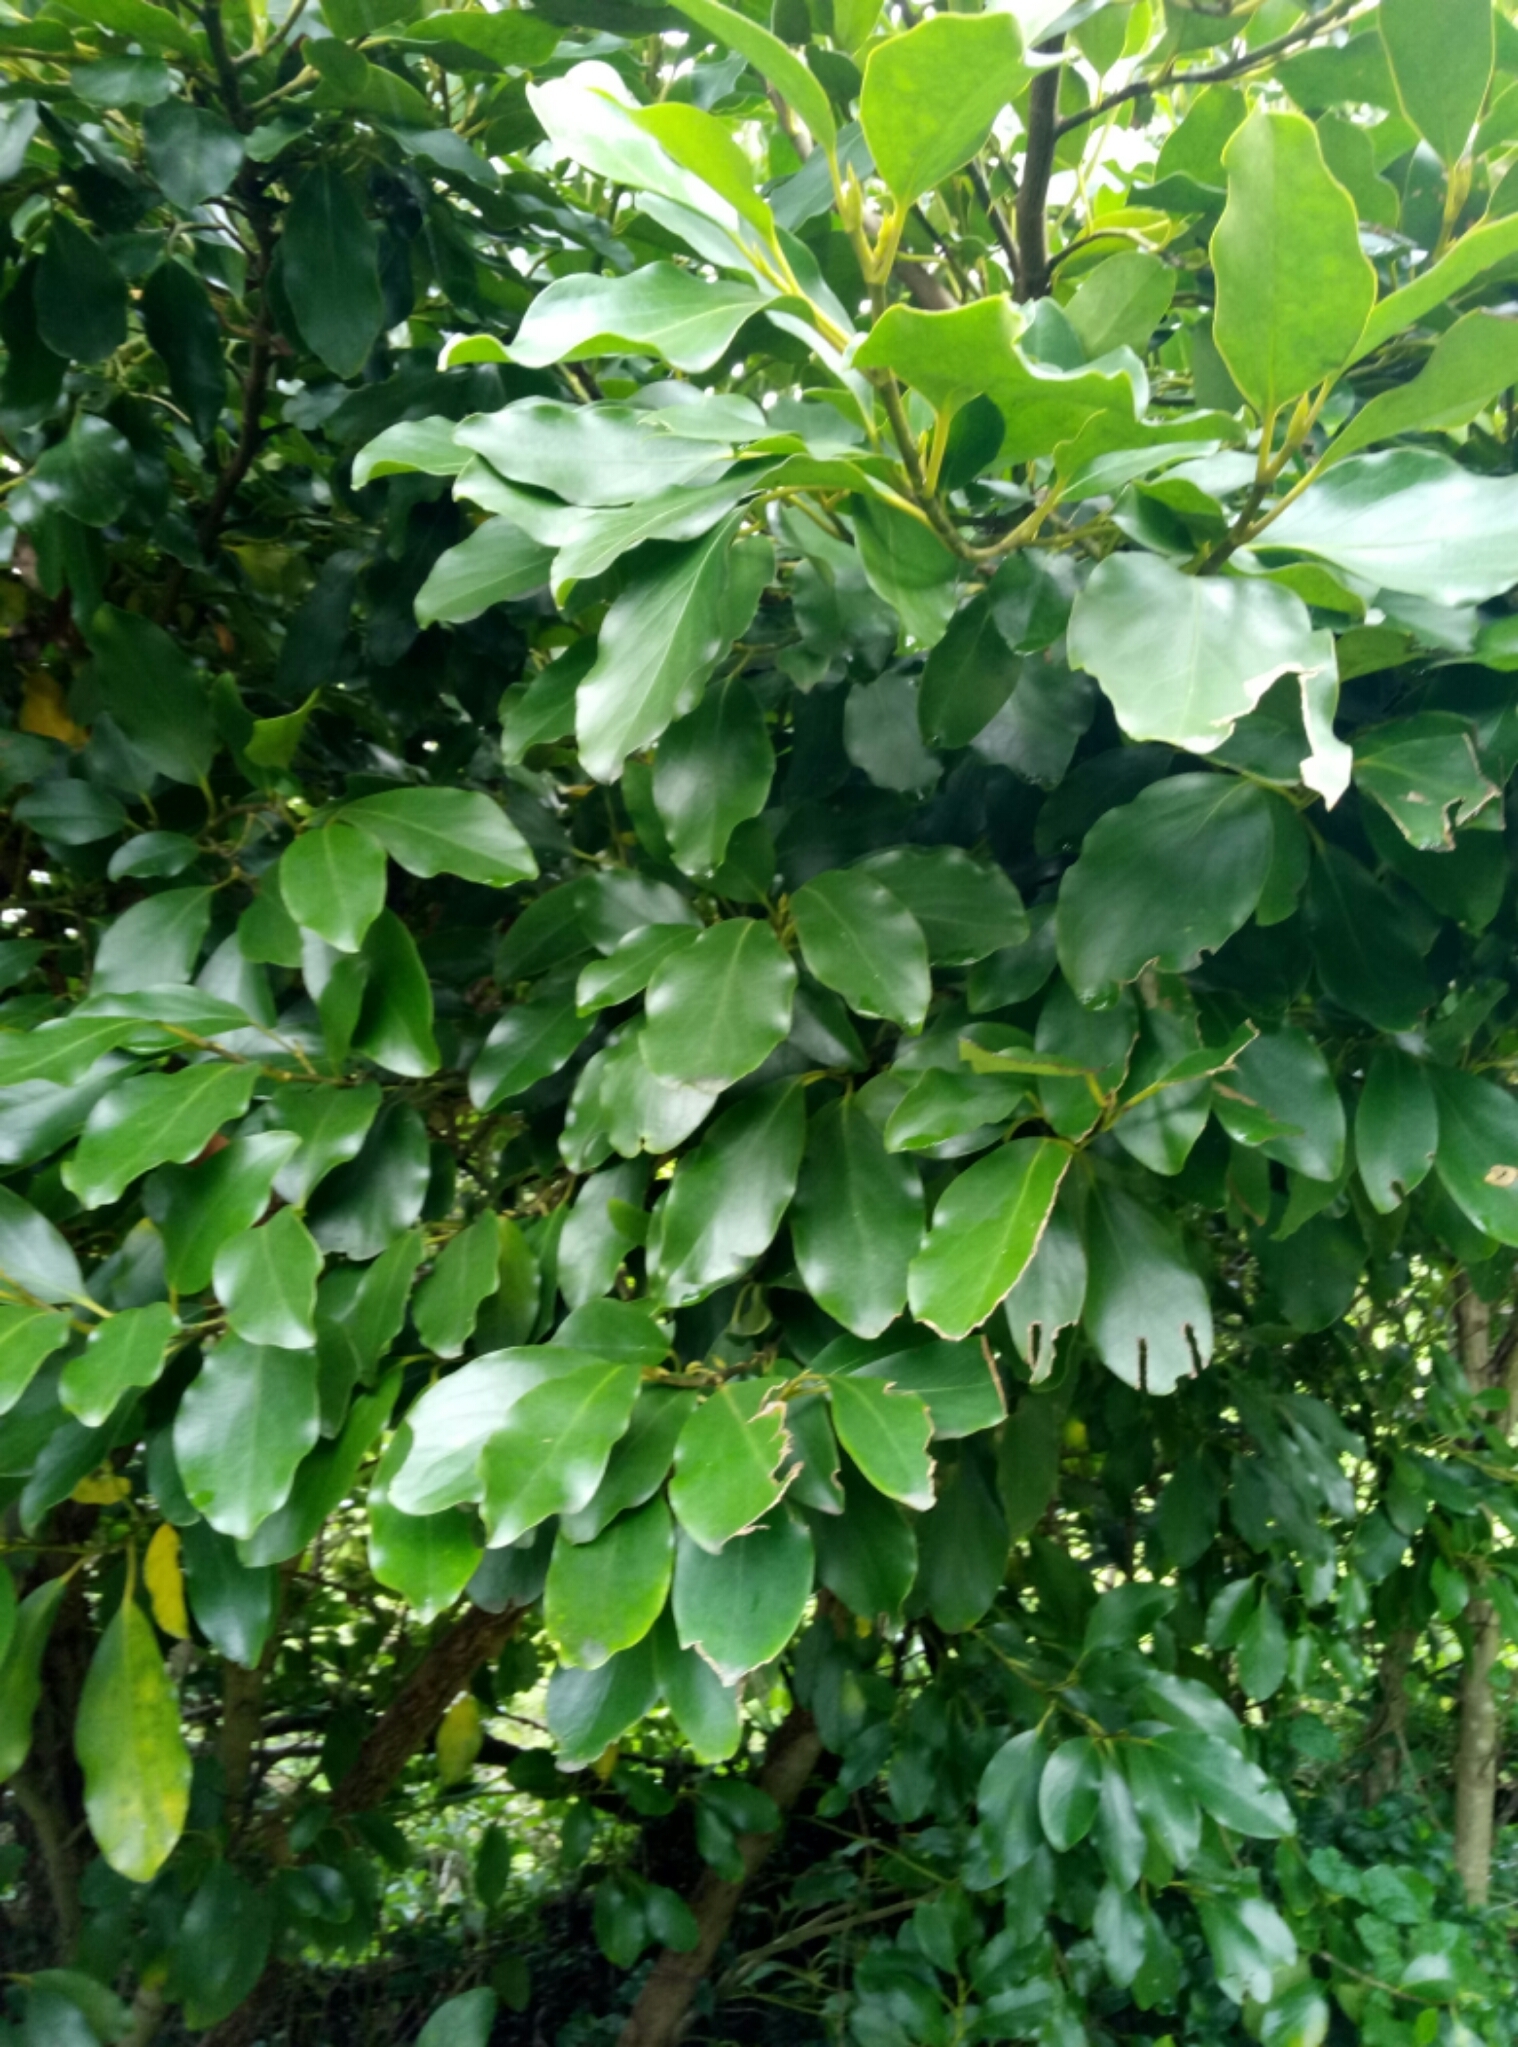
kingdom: Plantae
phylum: Tracheophyta
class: Magnoliopsida
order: Apiales
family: Griseliniaceae
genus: Griselinia
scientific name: Griselinia littoralis
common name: New zealand broadleaf
